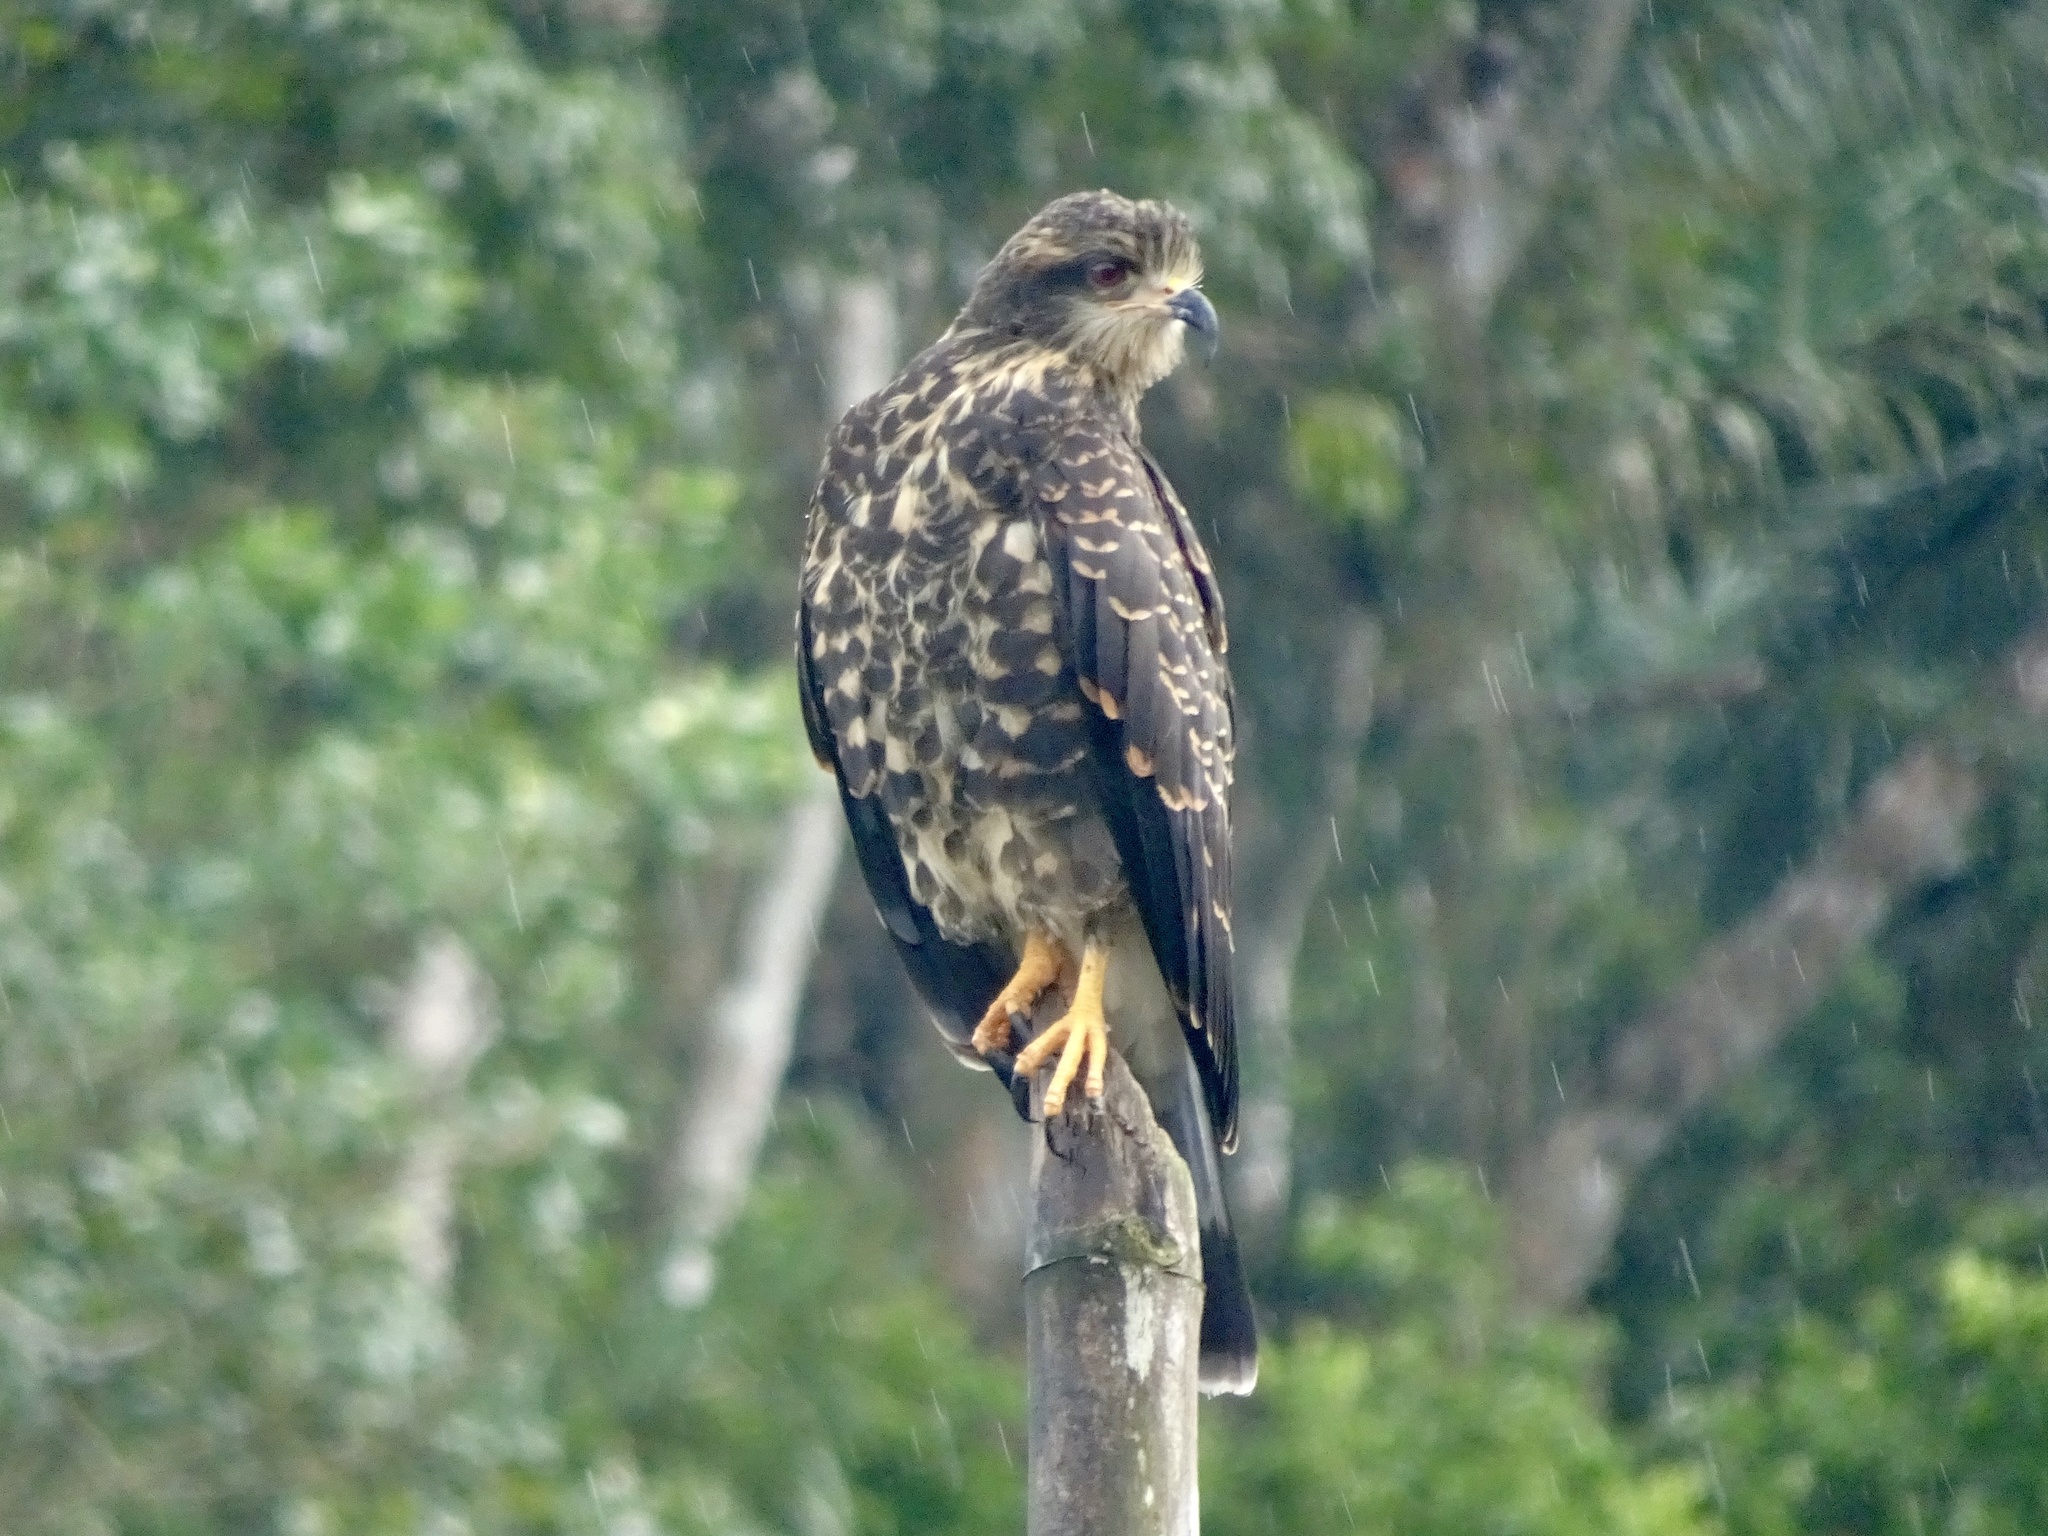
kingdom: Animalia
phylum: Chordata
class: Aves
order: Accipitriformes
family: Accipitridae
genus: Rostrhamus
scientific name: Rostrhamus sociabilis
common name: Snail kite
